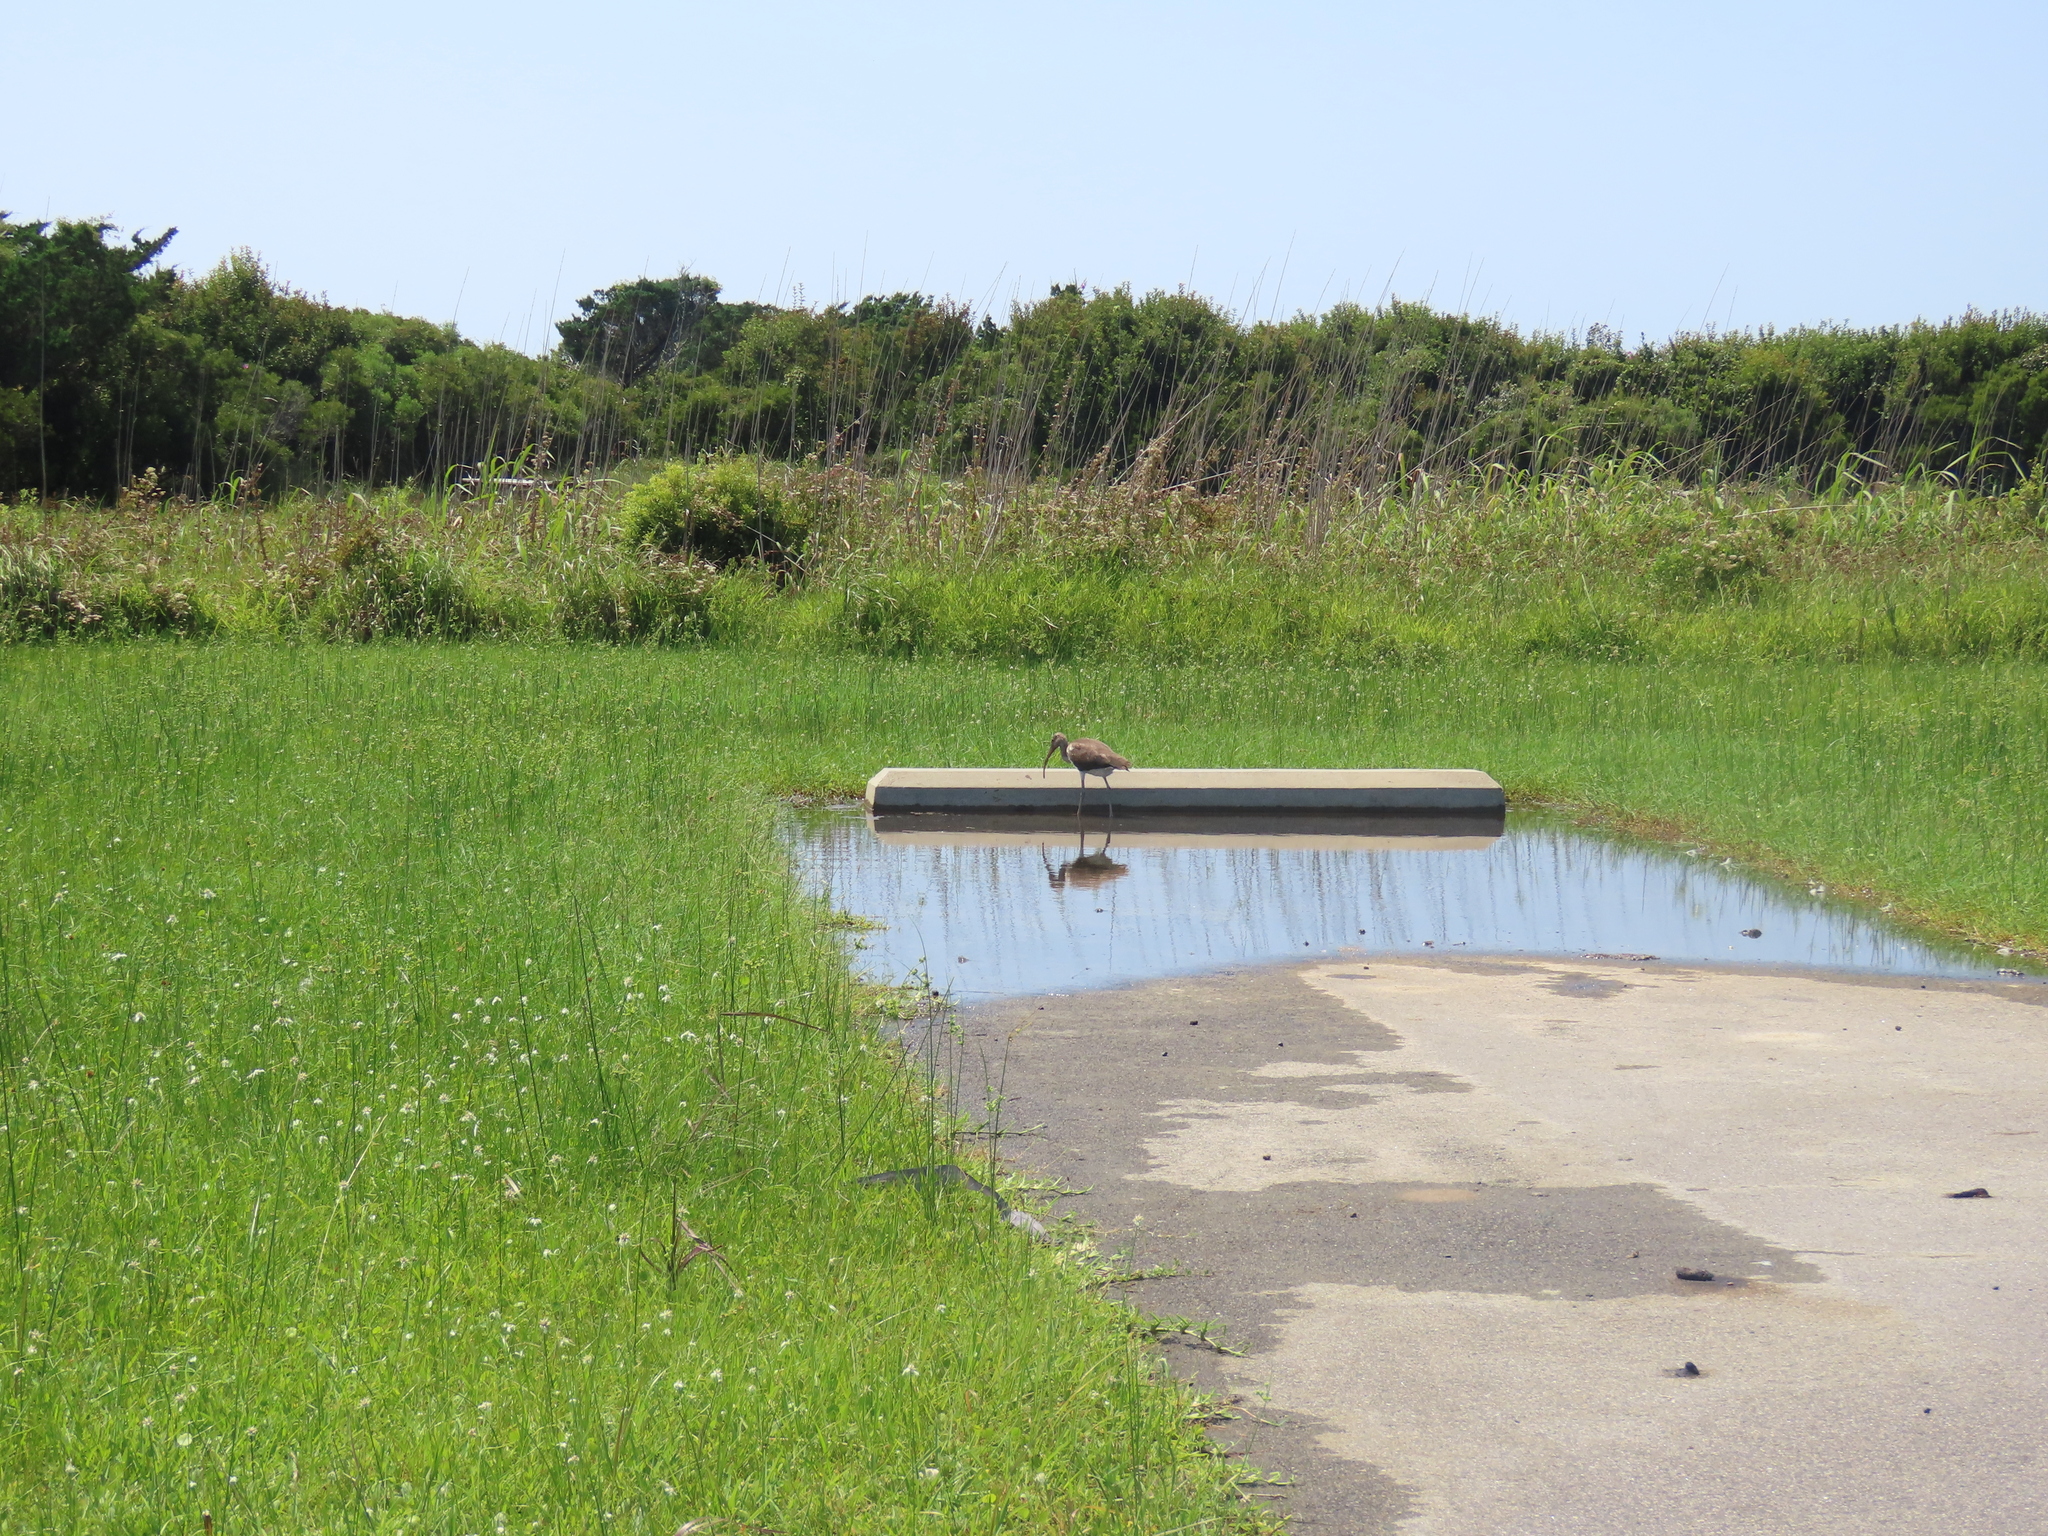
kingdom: Animalia
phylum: Chordata
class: Aves
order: Pelecaniformes
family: Threskiornithidae
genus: Eudocimus
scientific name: Eudocimus albus
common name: White ibis
